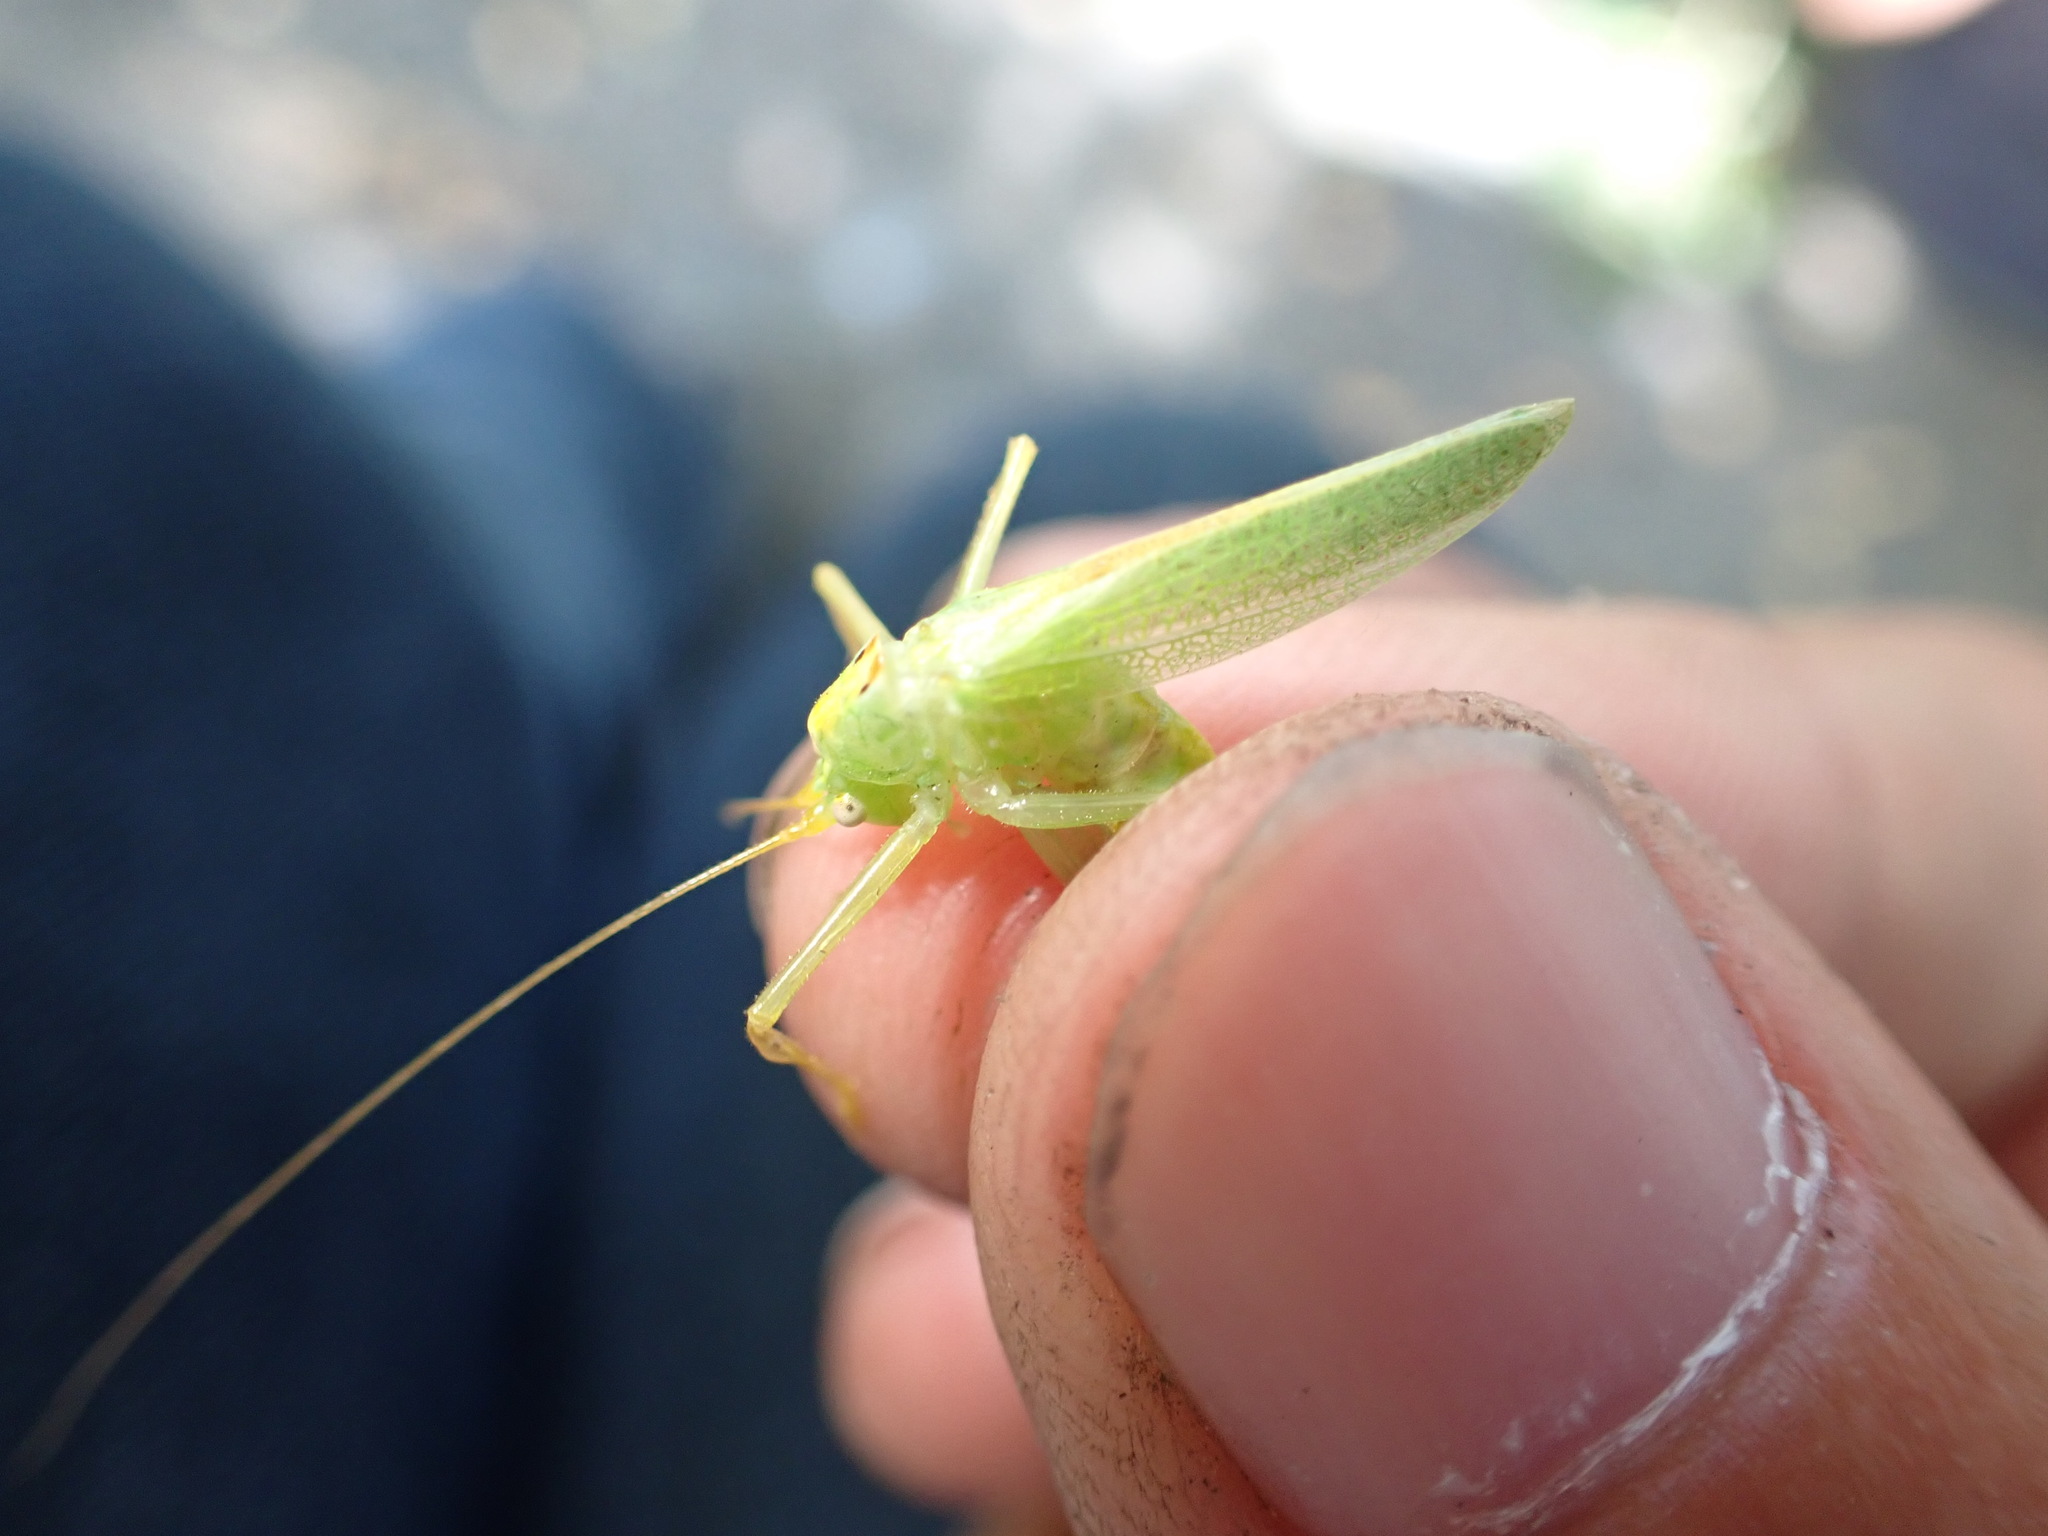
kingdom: Animalia
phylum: Arthropoda
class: Insecta
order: Orthoptera
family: Tettigoniidae
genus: Meconema
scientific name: Meconema thalassinum
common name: Oak bush-cricket
